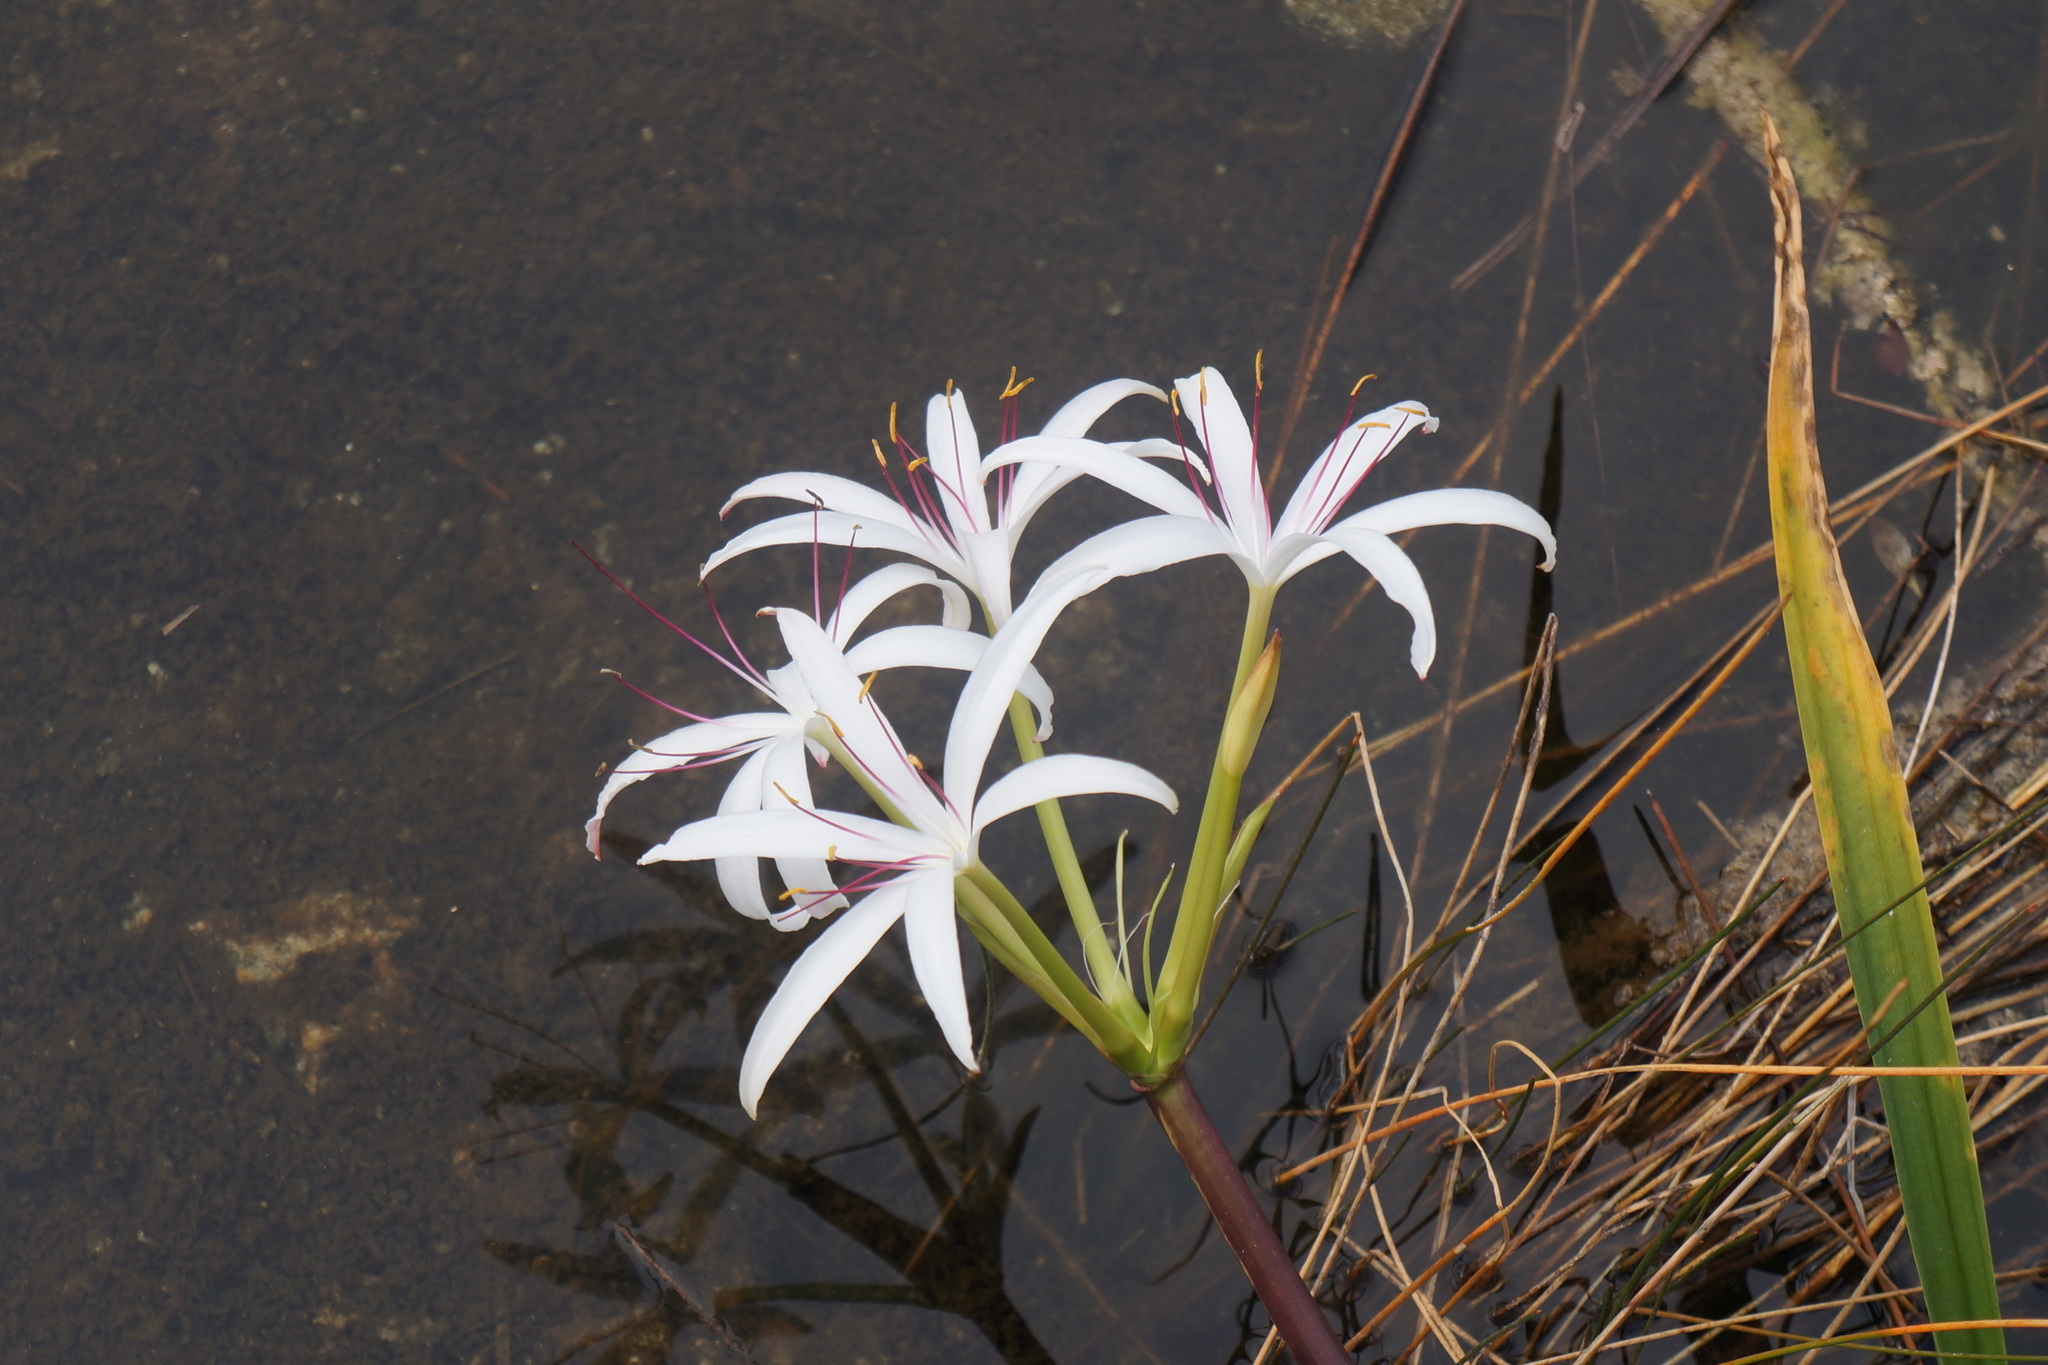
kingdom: Plantae
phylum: Tracheophyta
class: Liliopsida
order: Asparagales
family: Amaryllidaceae
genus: Crinum
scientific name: Crinum americanum
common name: Florida swamp-lily
